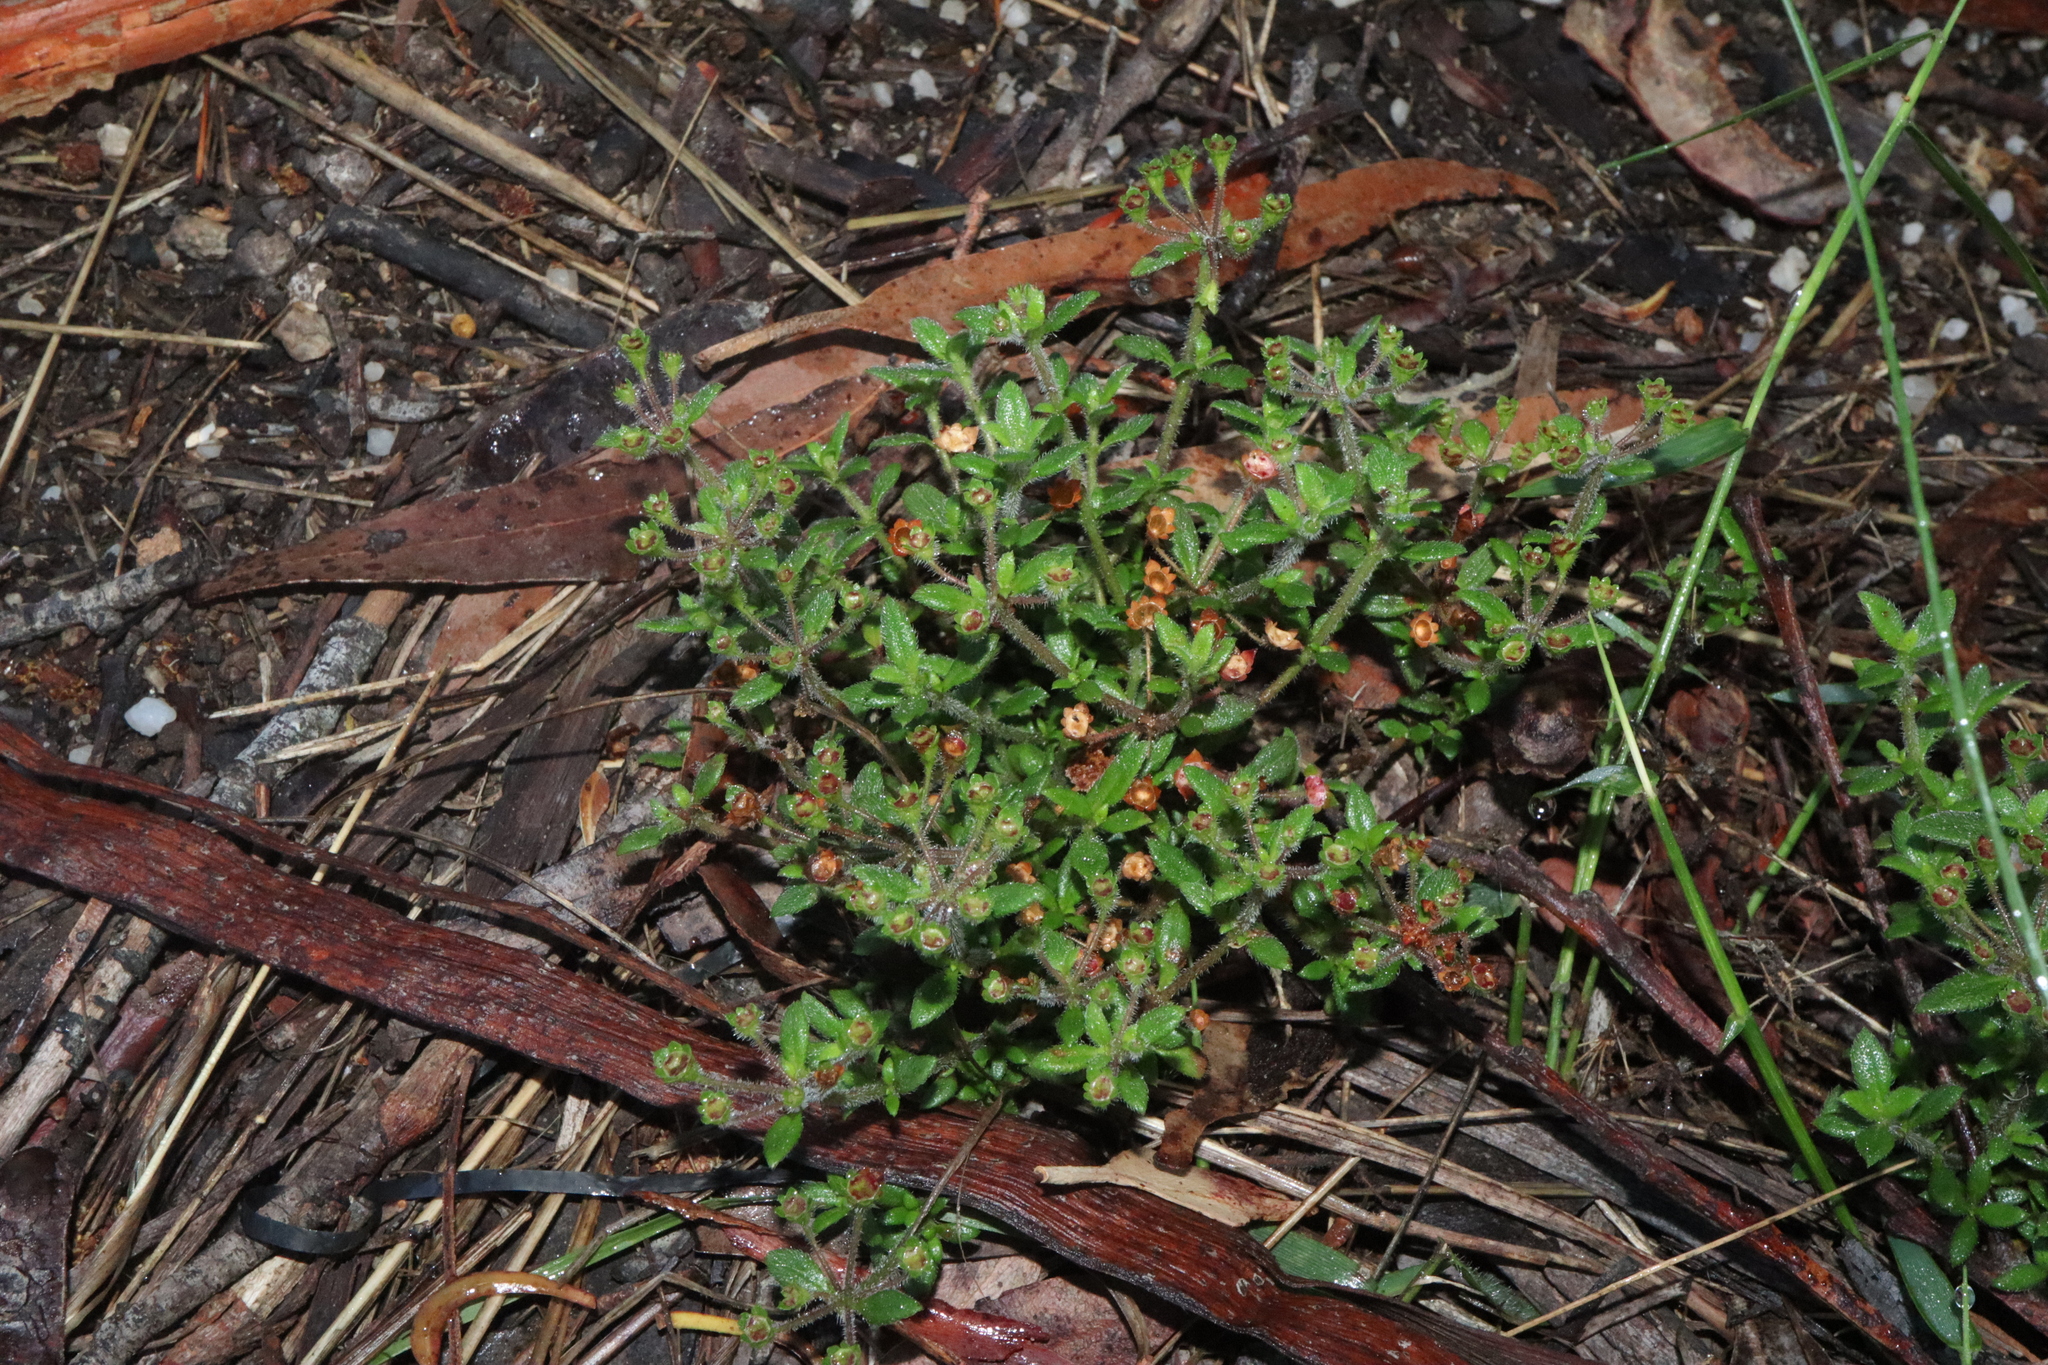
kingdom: Plantae
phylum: Tracheophyta
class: Magnoliopsida
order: Gentianales
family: Rubiaceae
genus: Pomax
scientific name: Pomax umbellata
